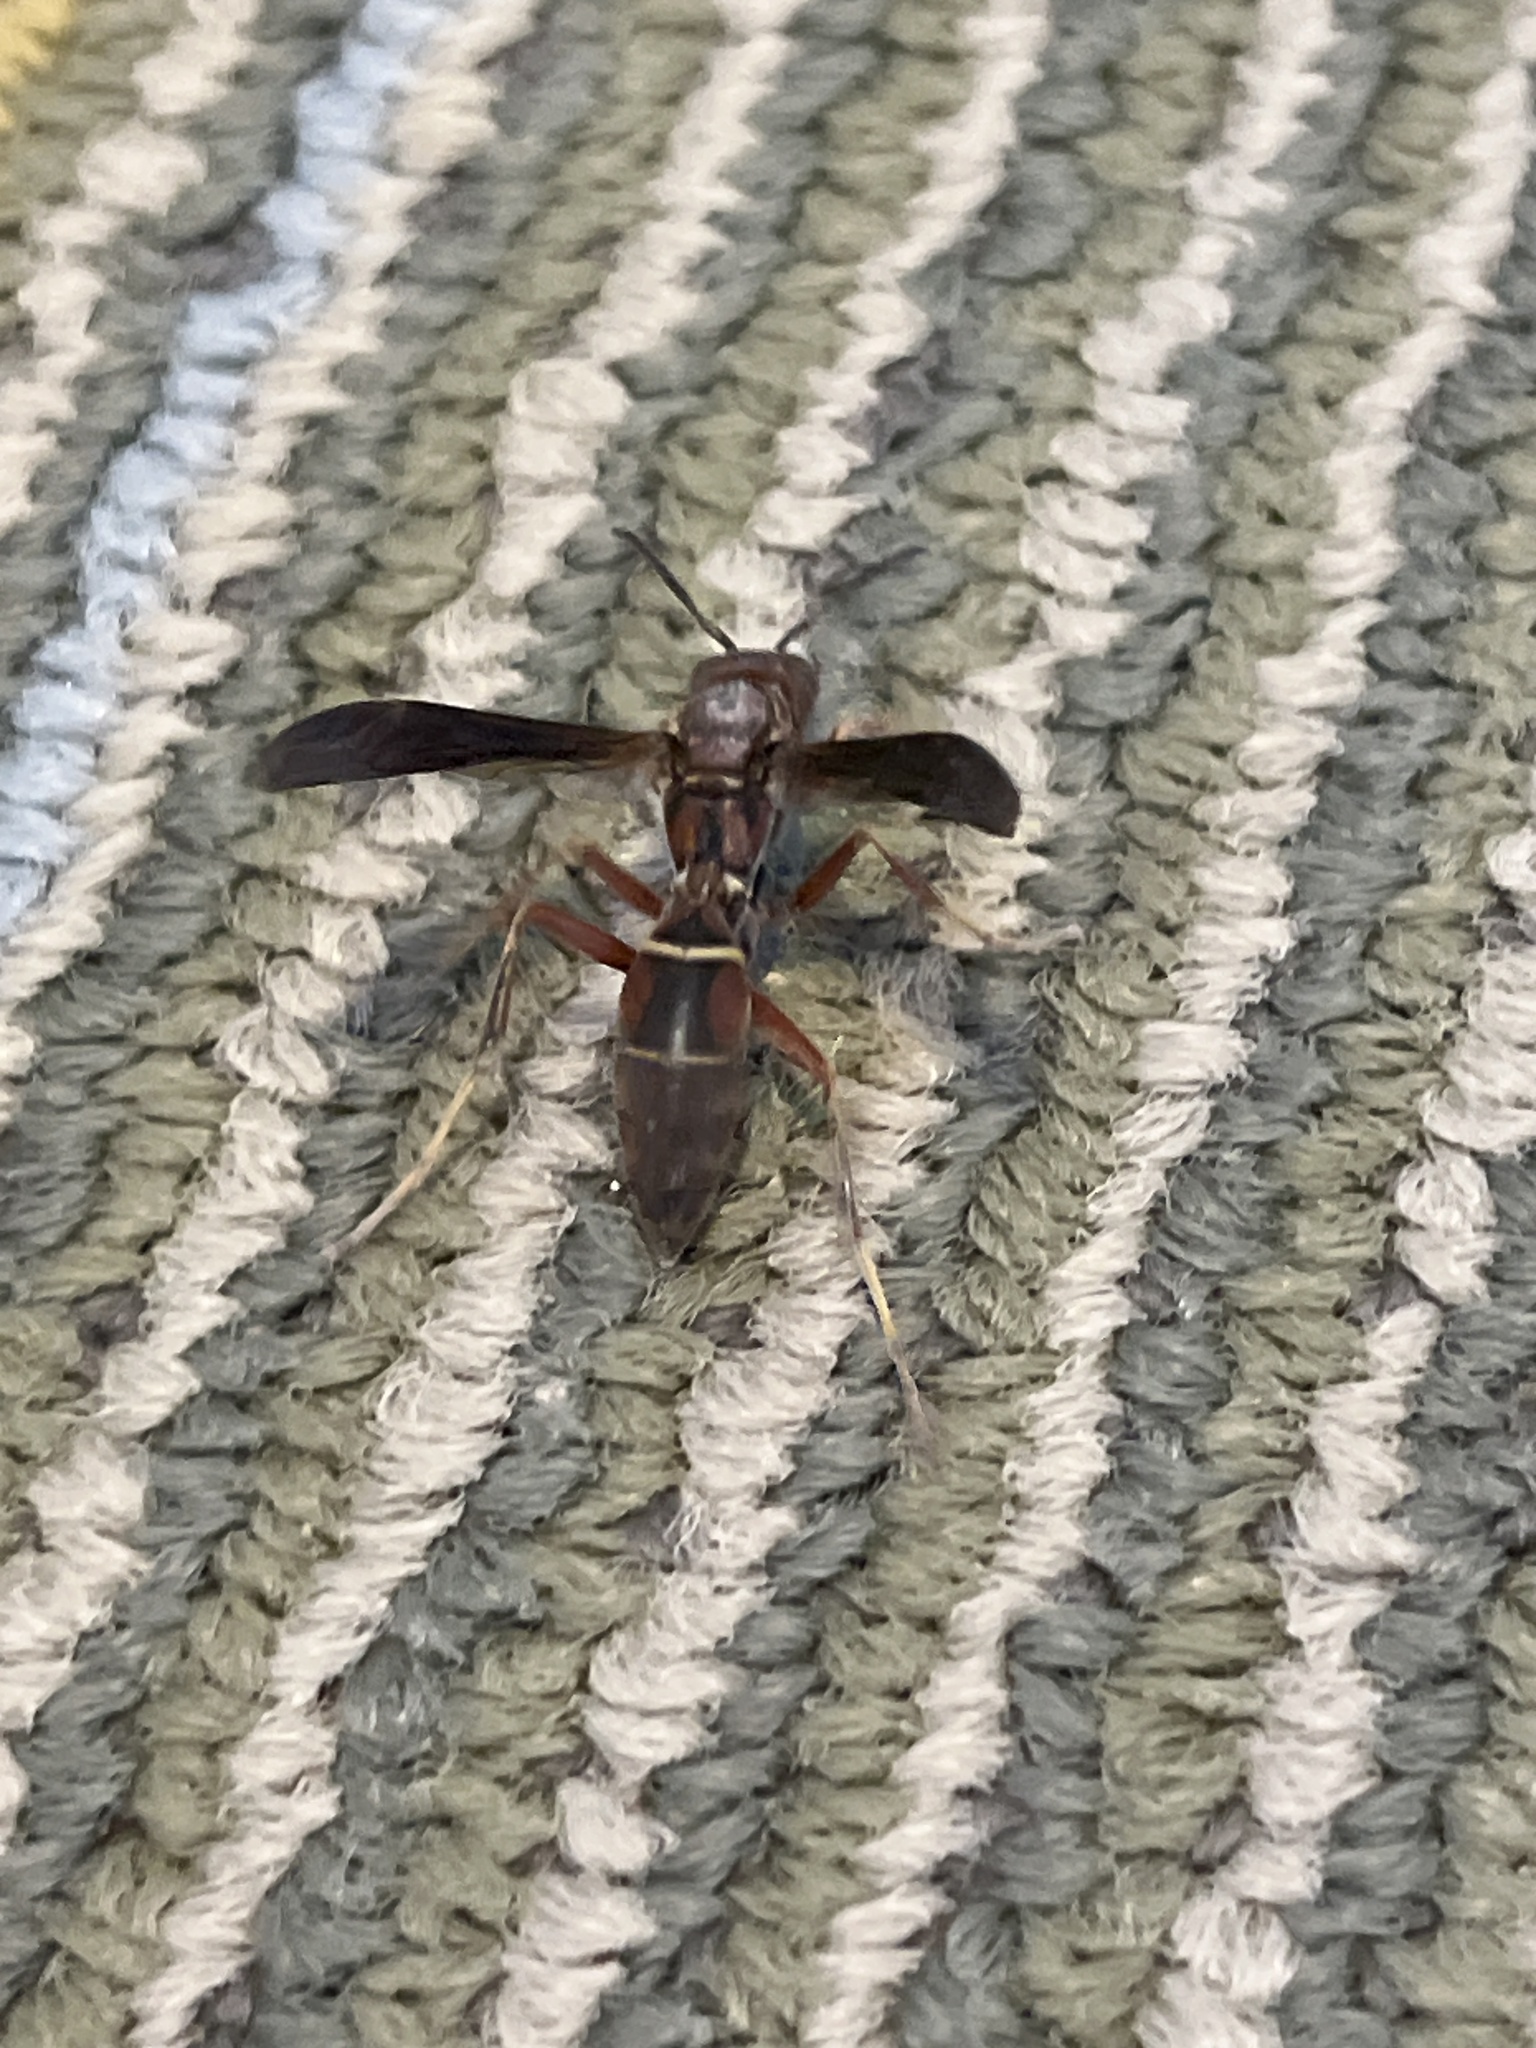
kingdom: Animalia
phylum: Arthropoda
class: Insecta
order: Hymenoptera
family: Eumenidae
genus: Polistes
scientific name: Polistes fuscatus
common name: Dark paper wasp
